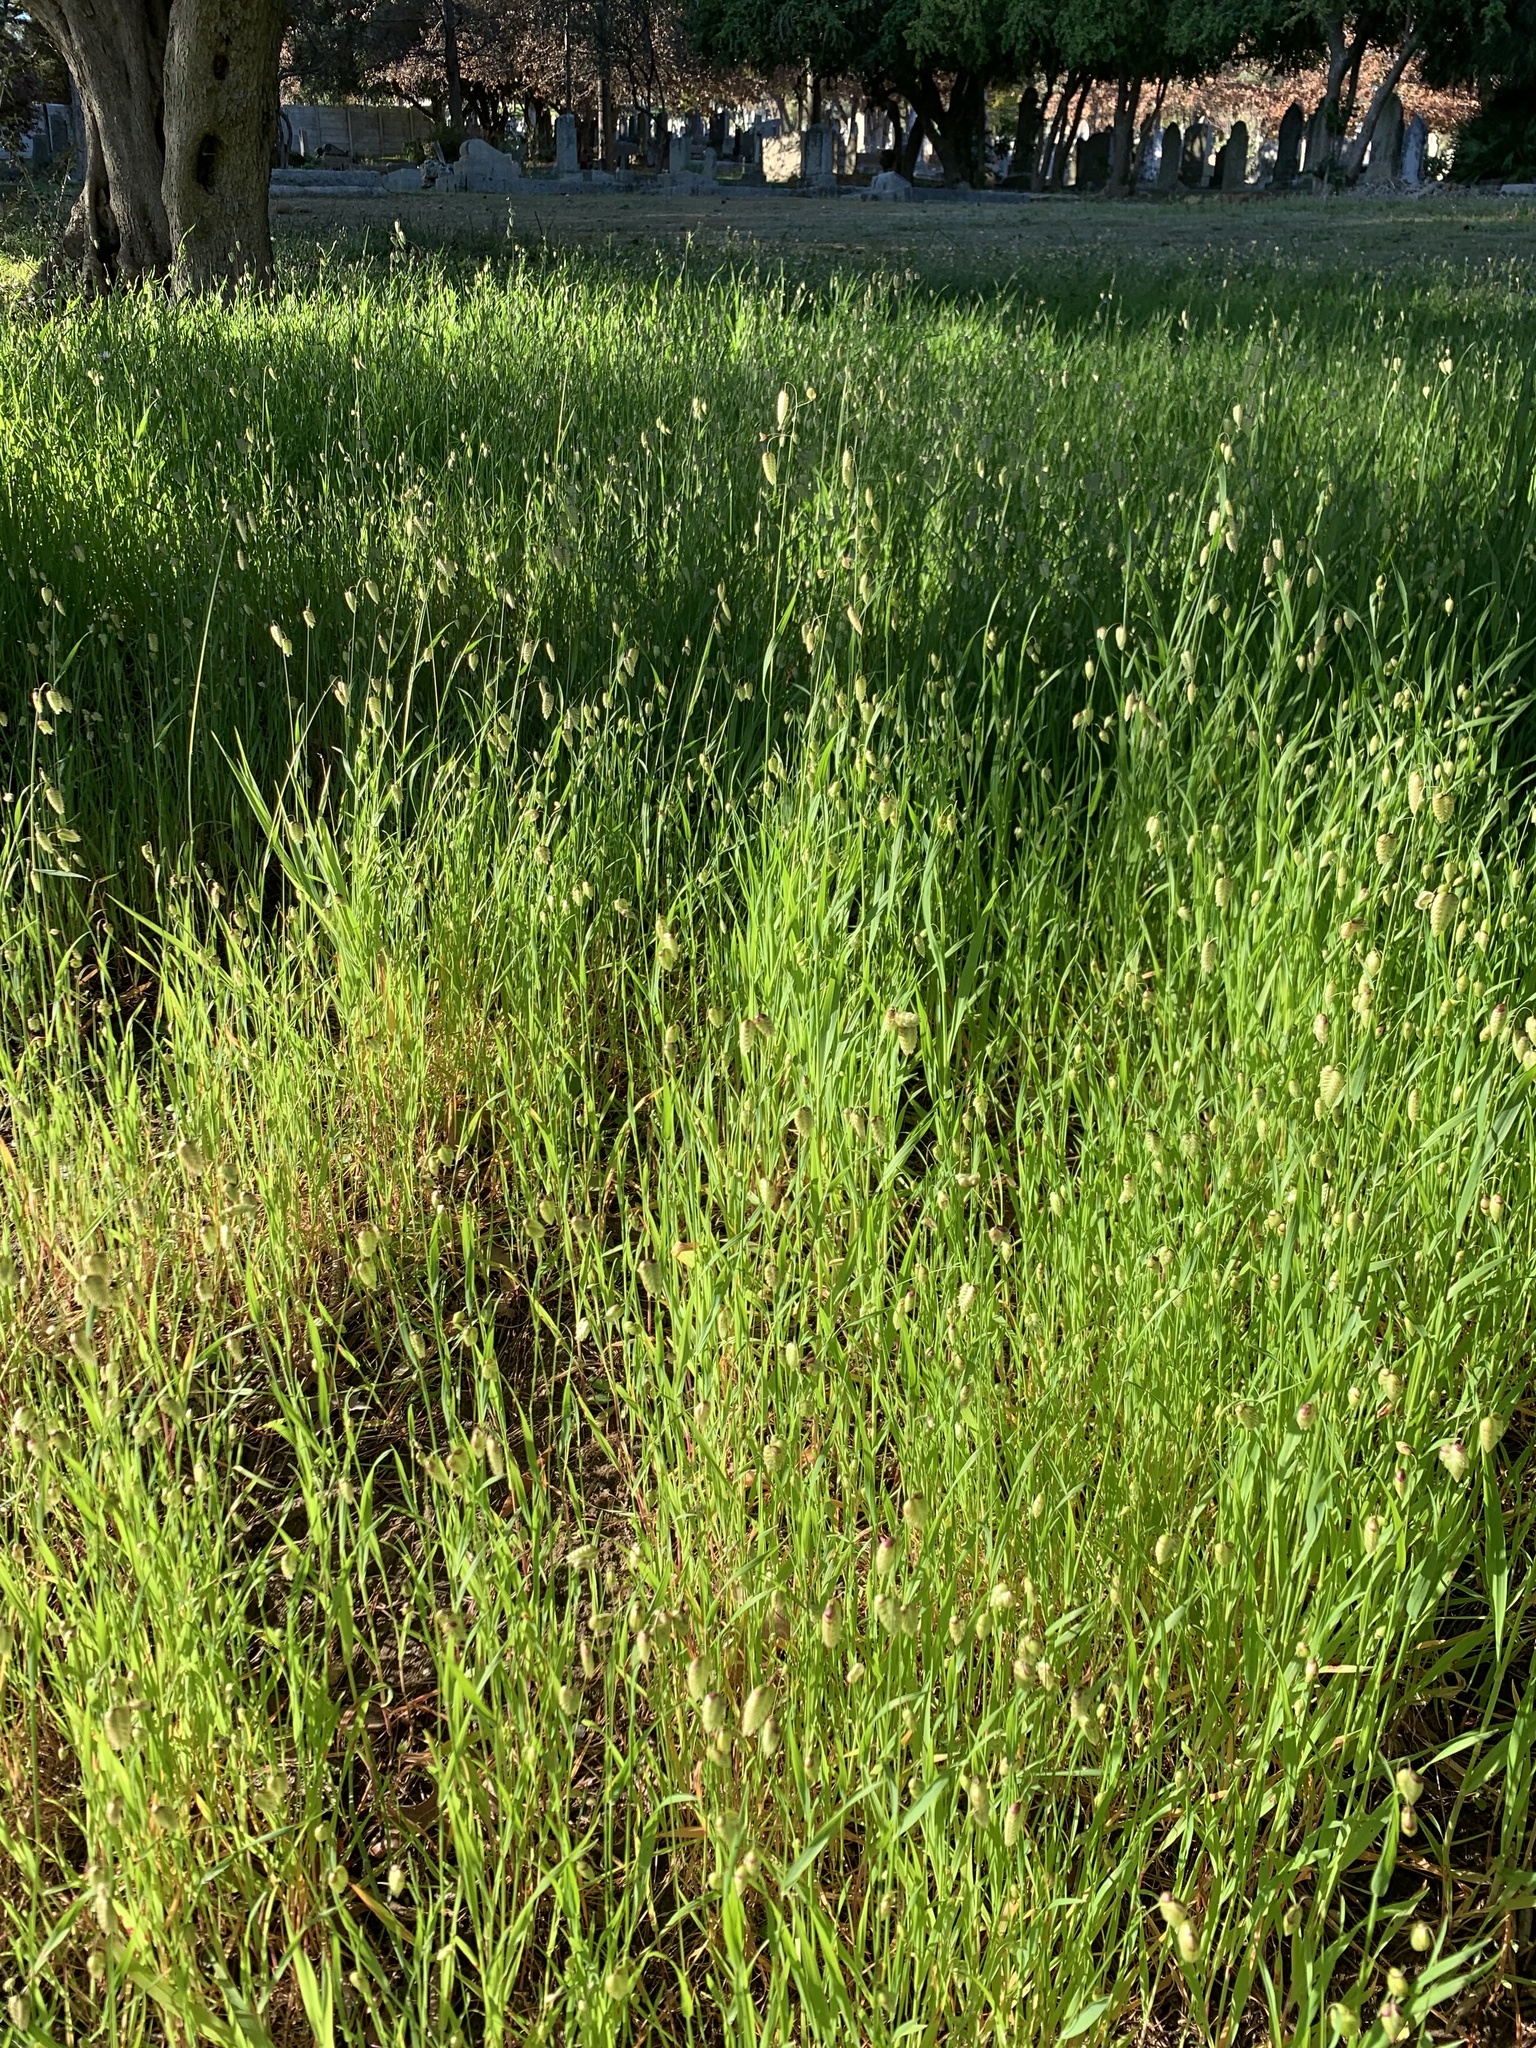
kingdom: Plantae
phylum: Tracheophyta
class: Liliopsida
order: Poales
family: Poaceae
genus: Briza
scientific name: Briza maxima
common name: Big quakinggrass
